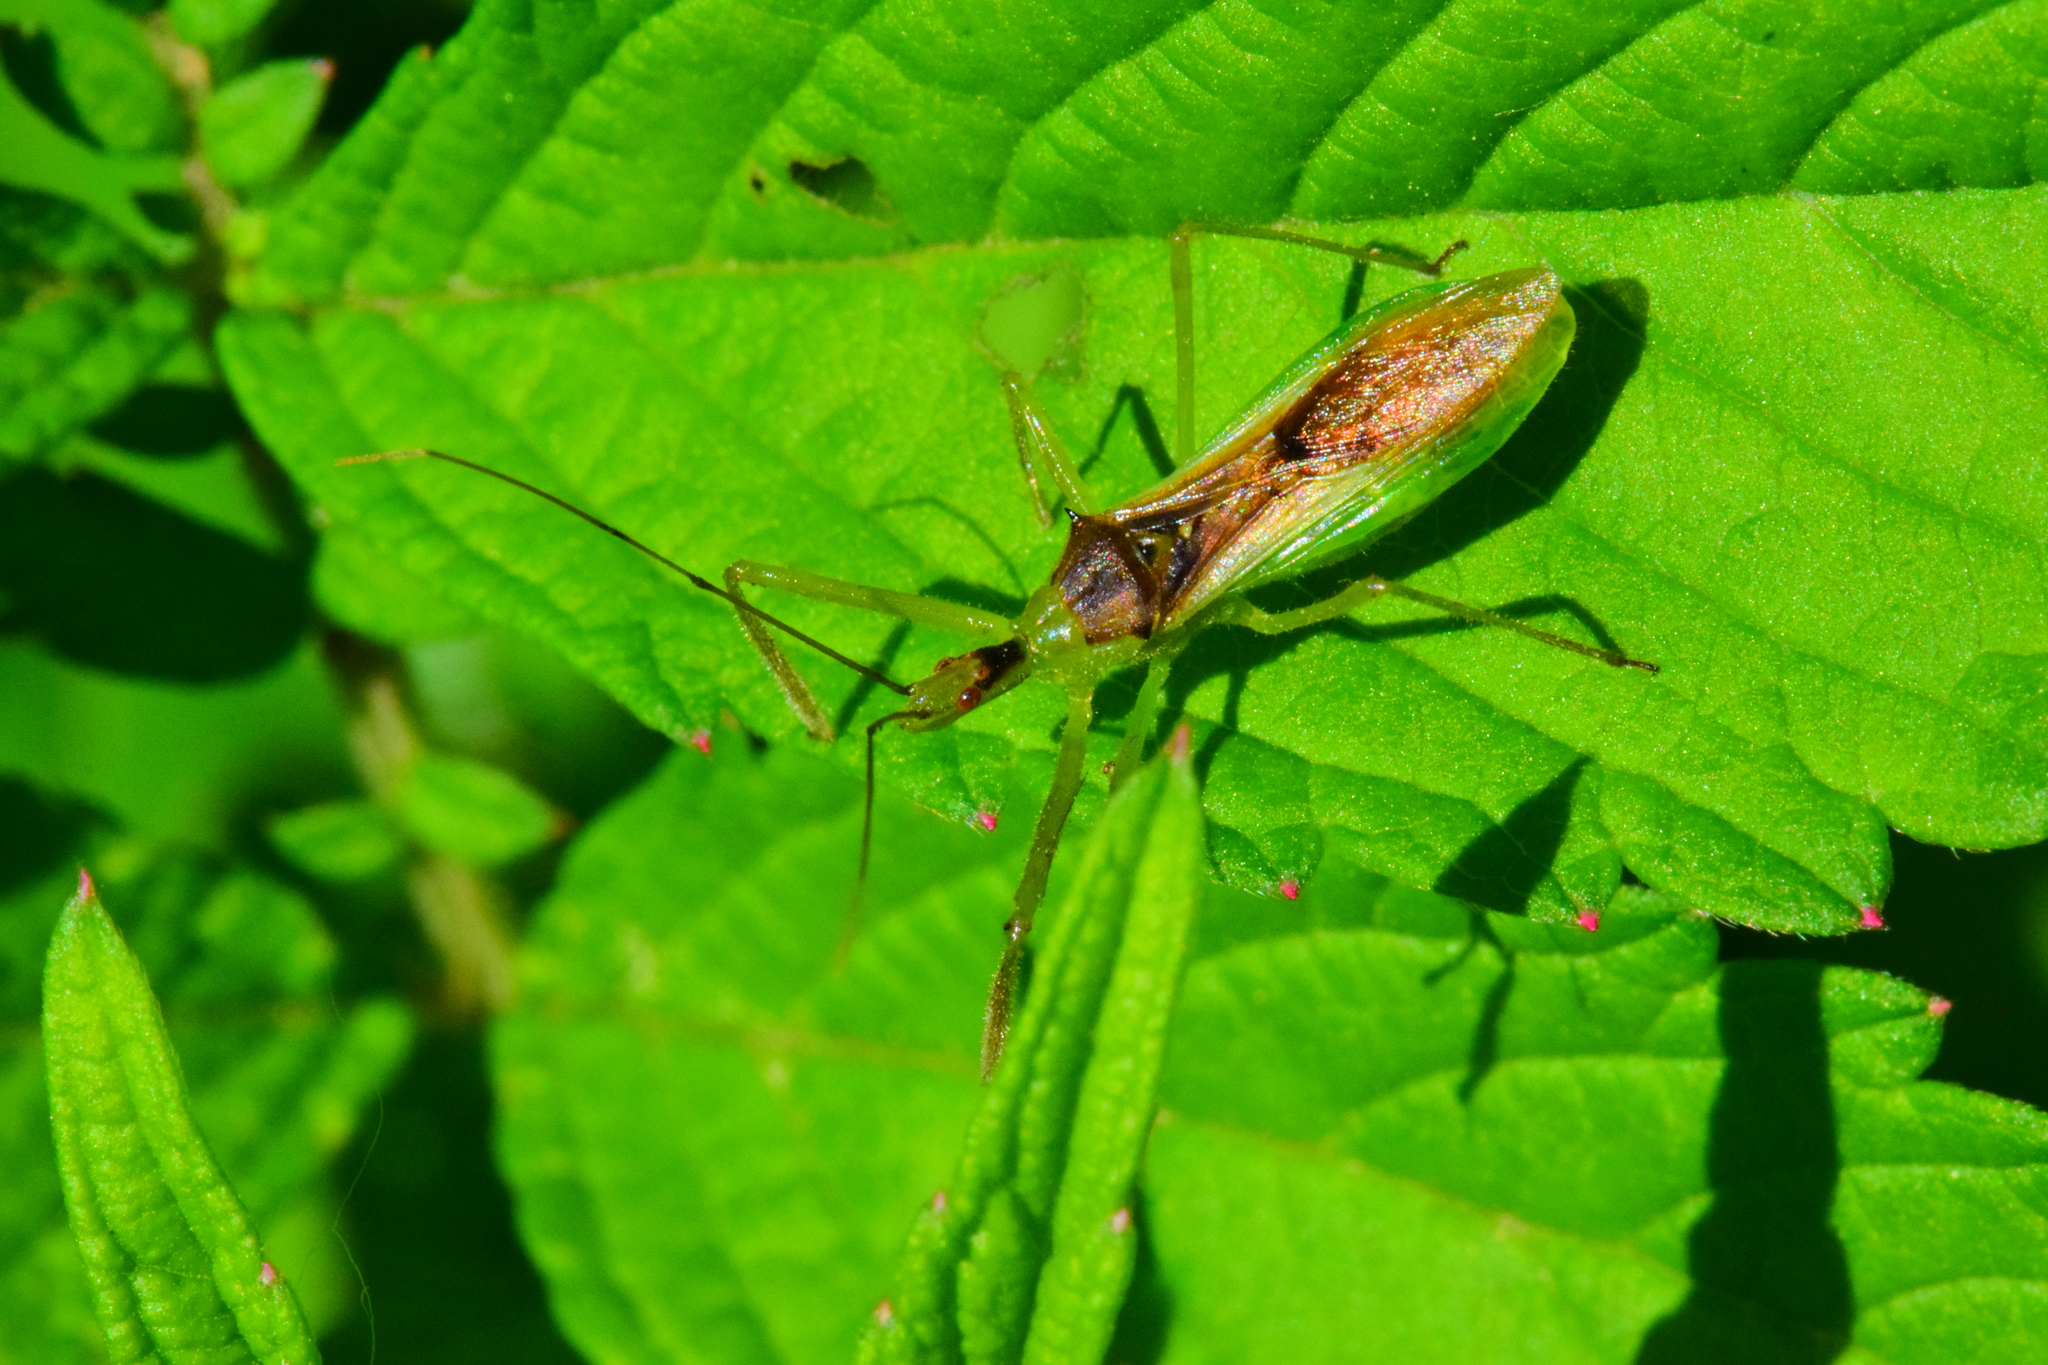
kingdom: Animalia
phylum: Arthropoda
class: Insecta
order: Hemiptera
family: Reduviidae
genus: Zelus
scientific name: Zelus luridus
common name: Pale green assassin bug
